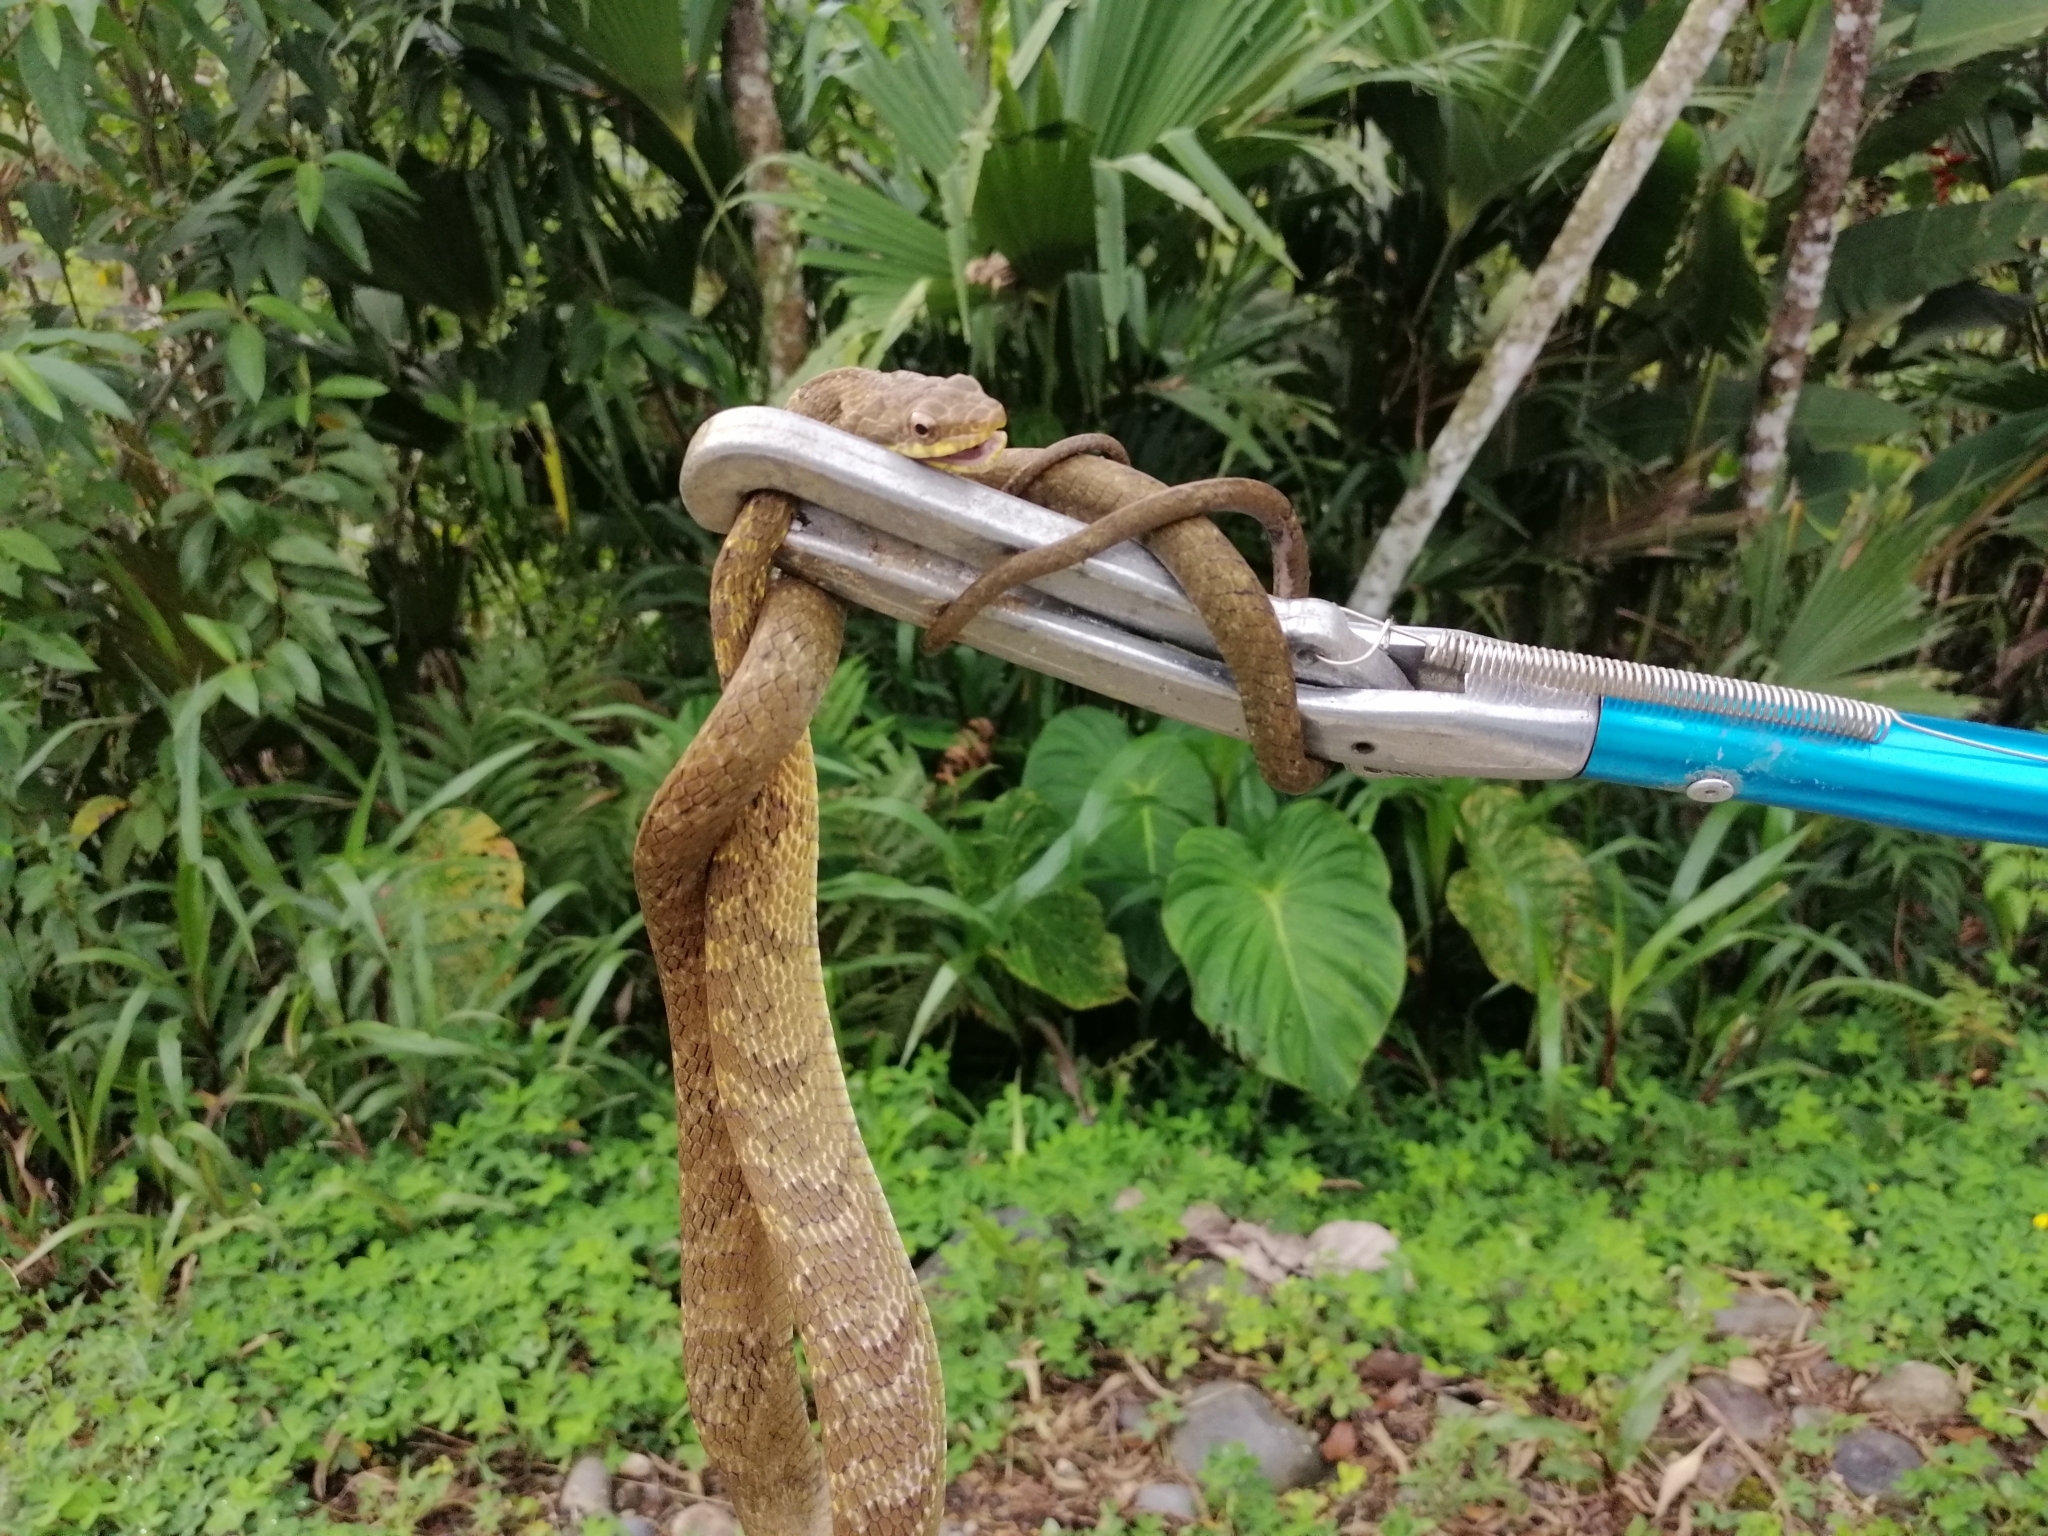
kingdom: Animalia
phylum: Chordata
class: Squamata
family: Colubridae
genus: Chironius
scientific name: Chironius quadricarinatus
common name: Central sipo
